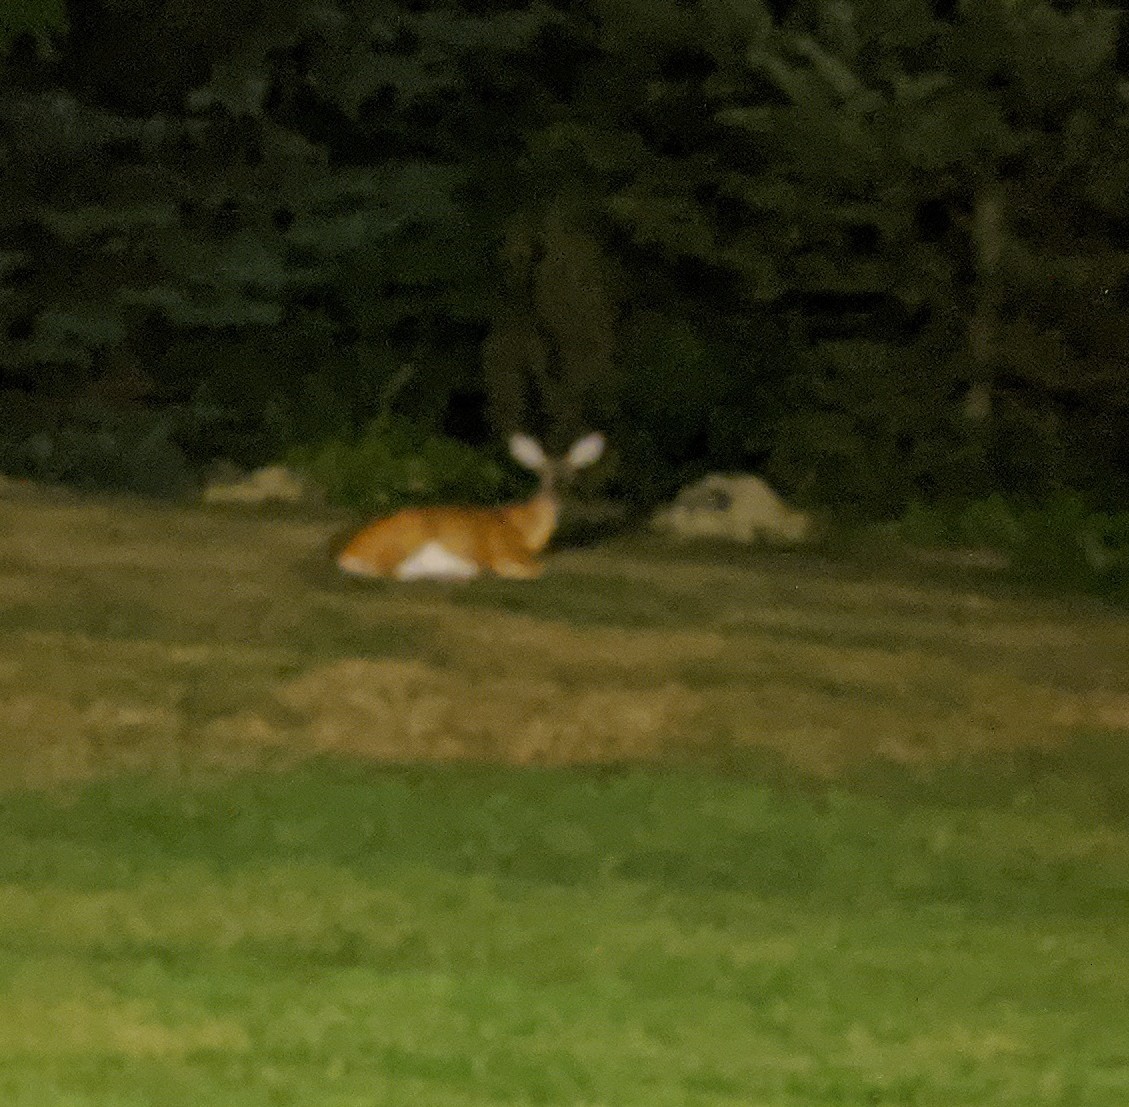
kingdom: Animalia
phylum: Chordata
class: Mammalia
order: Artiodactyla
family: Cervidae
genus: Odocoileus
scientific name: Odocoileus virginianus
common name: White-tailed deer
